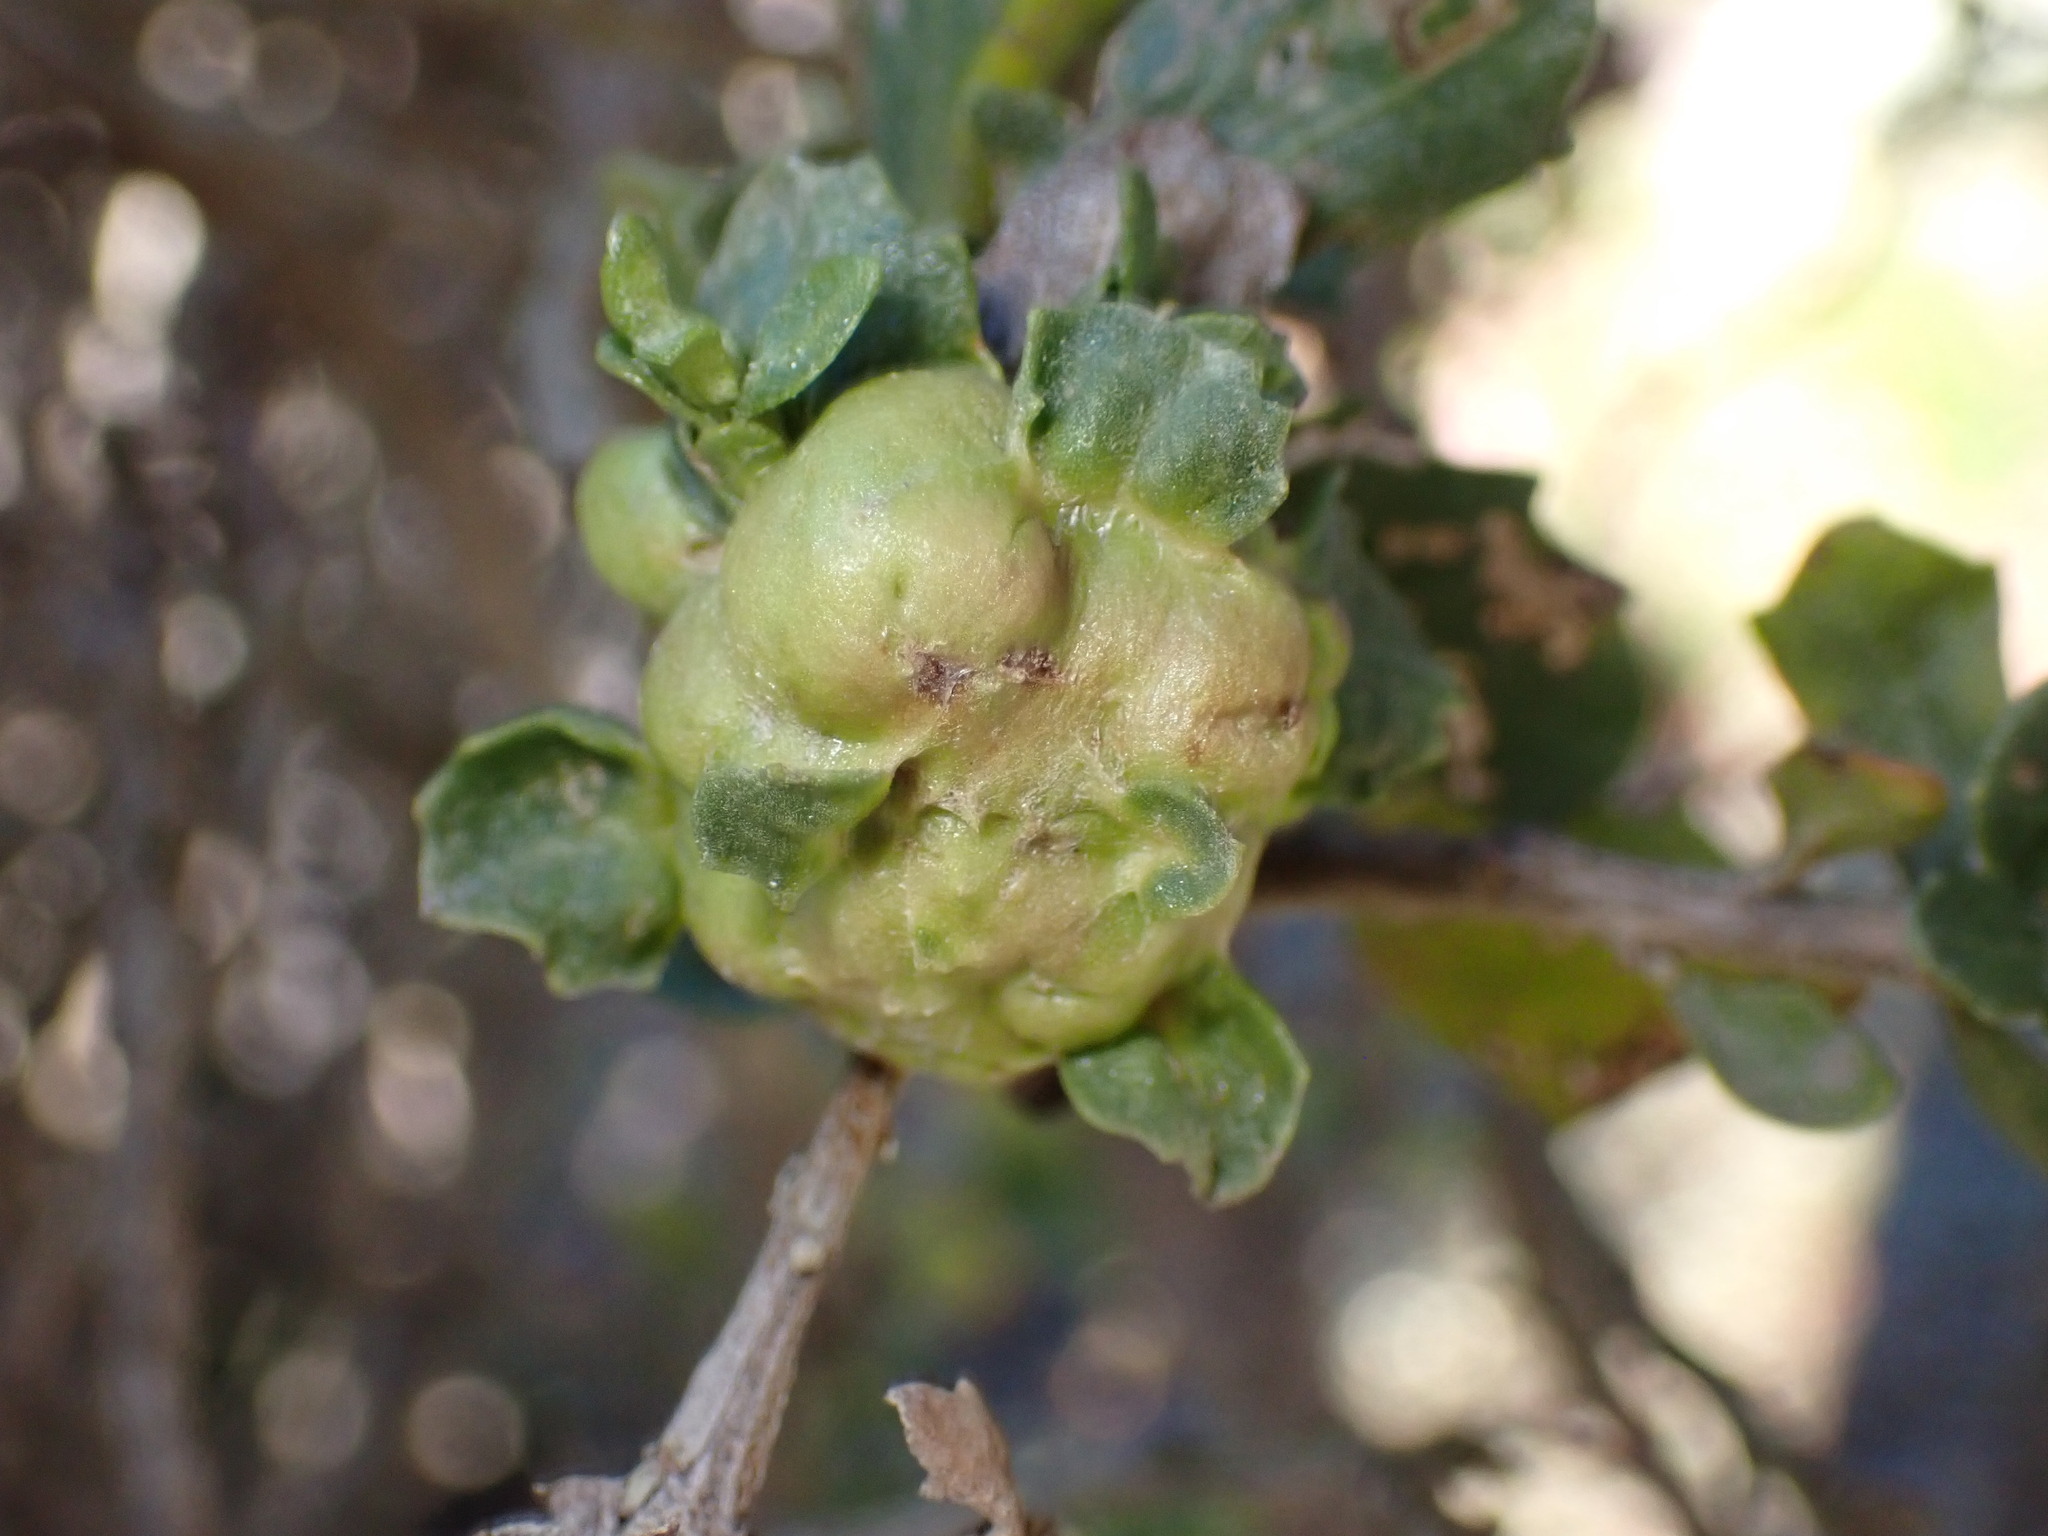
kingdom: Animalia
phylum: Arthropoda
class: Insecta
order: Diptera
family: Cecidomyiidae
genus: Rhopalomyia
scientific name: Rhopalomyia californica
